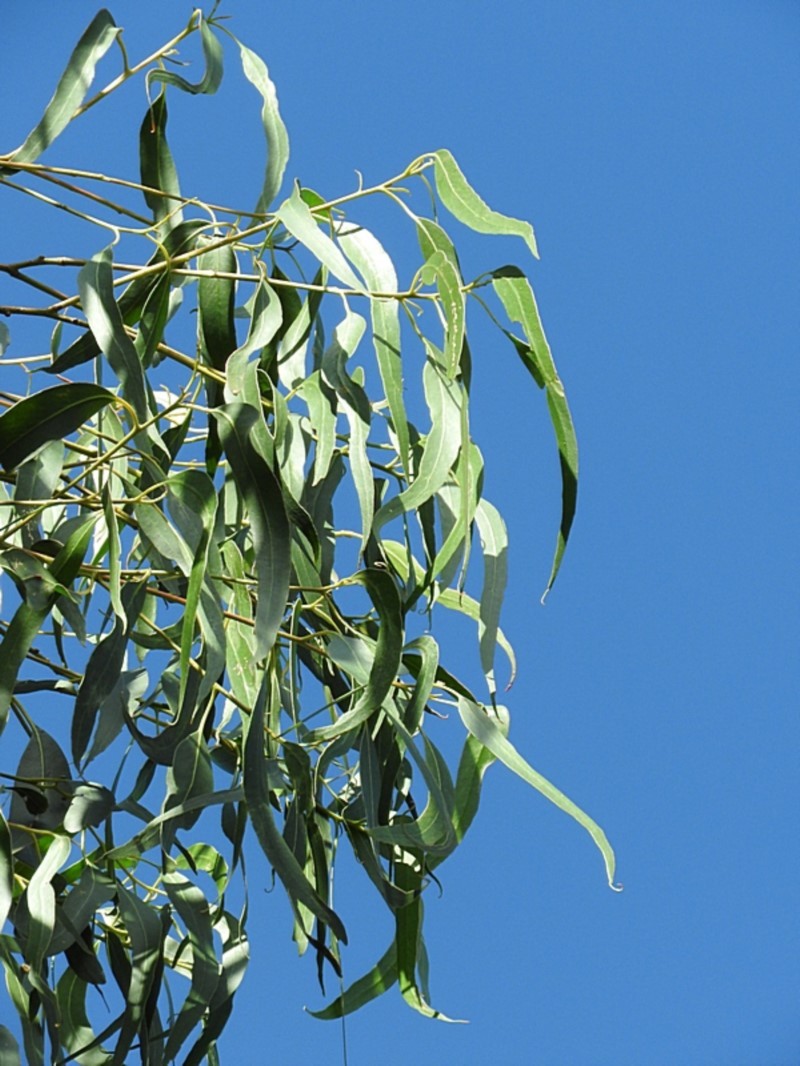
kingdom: Plantae
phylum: Tracheophyta
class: Magnoliopsida
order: Myrtales
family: Myrtaceae
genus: Eucalyptus
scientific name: Eucalyptus globulus
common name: Southern blue-gum
